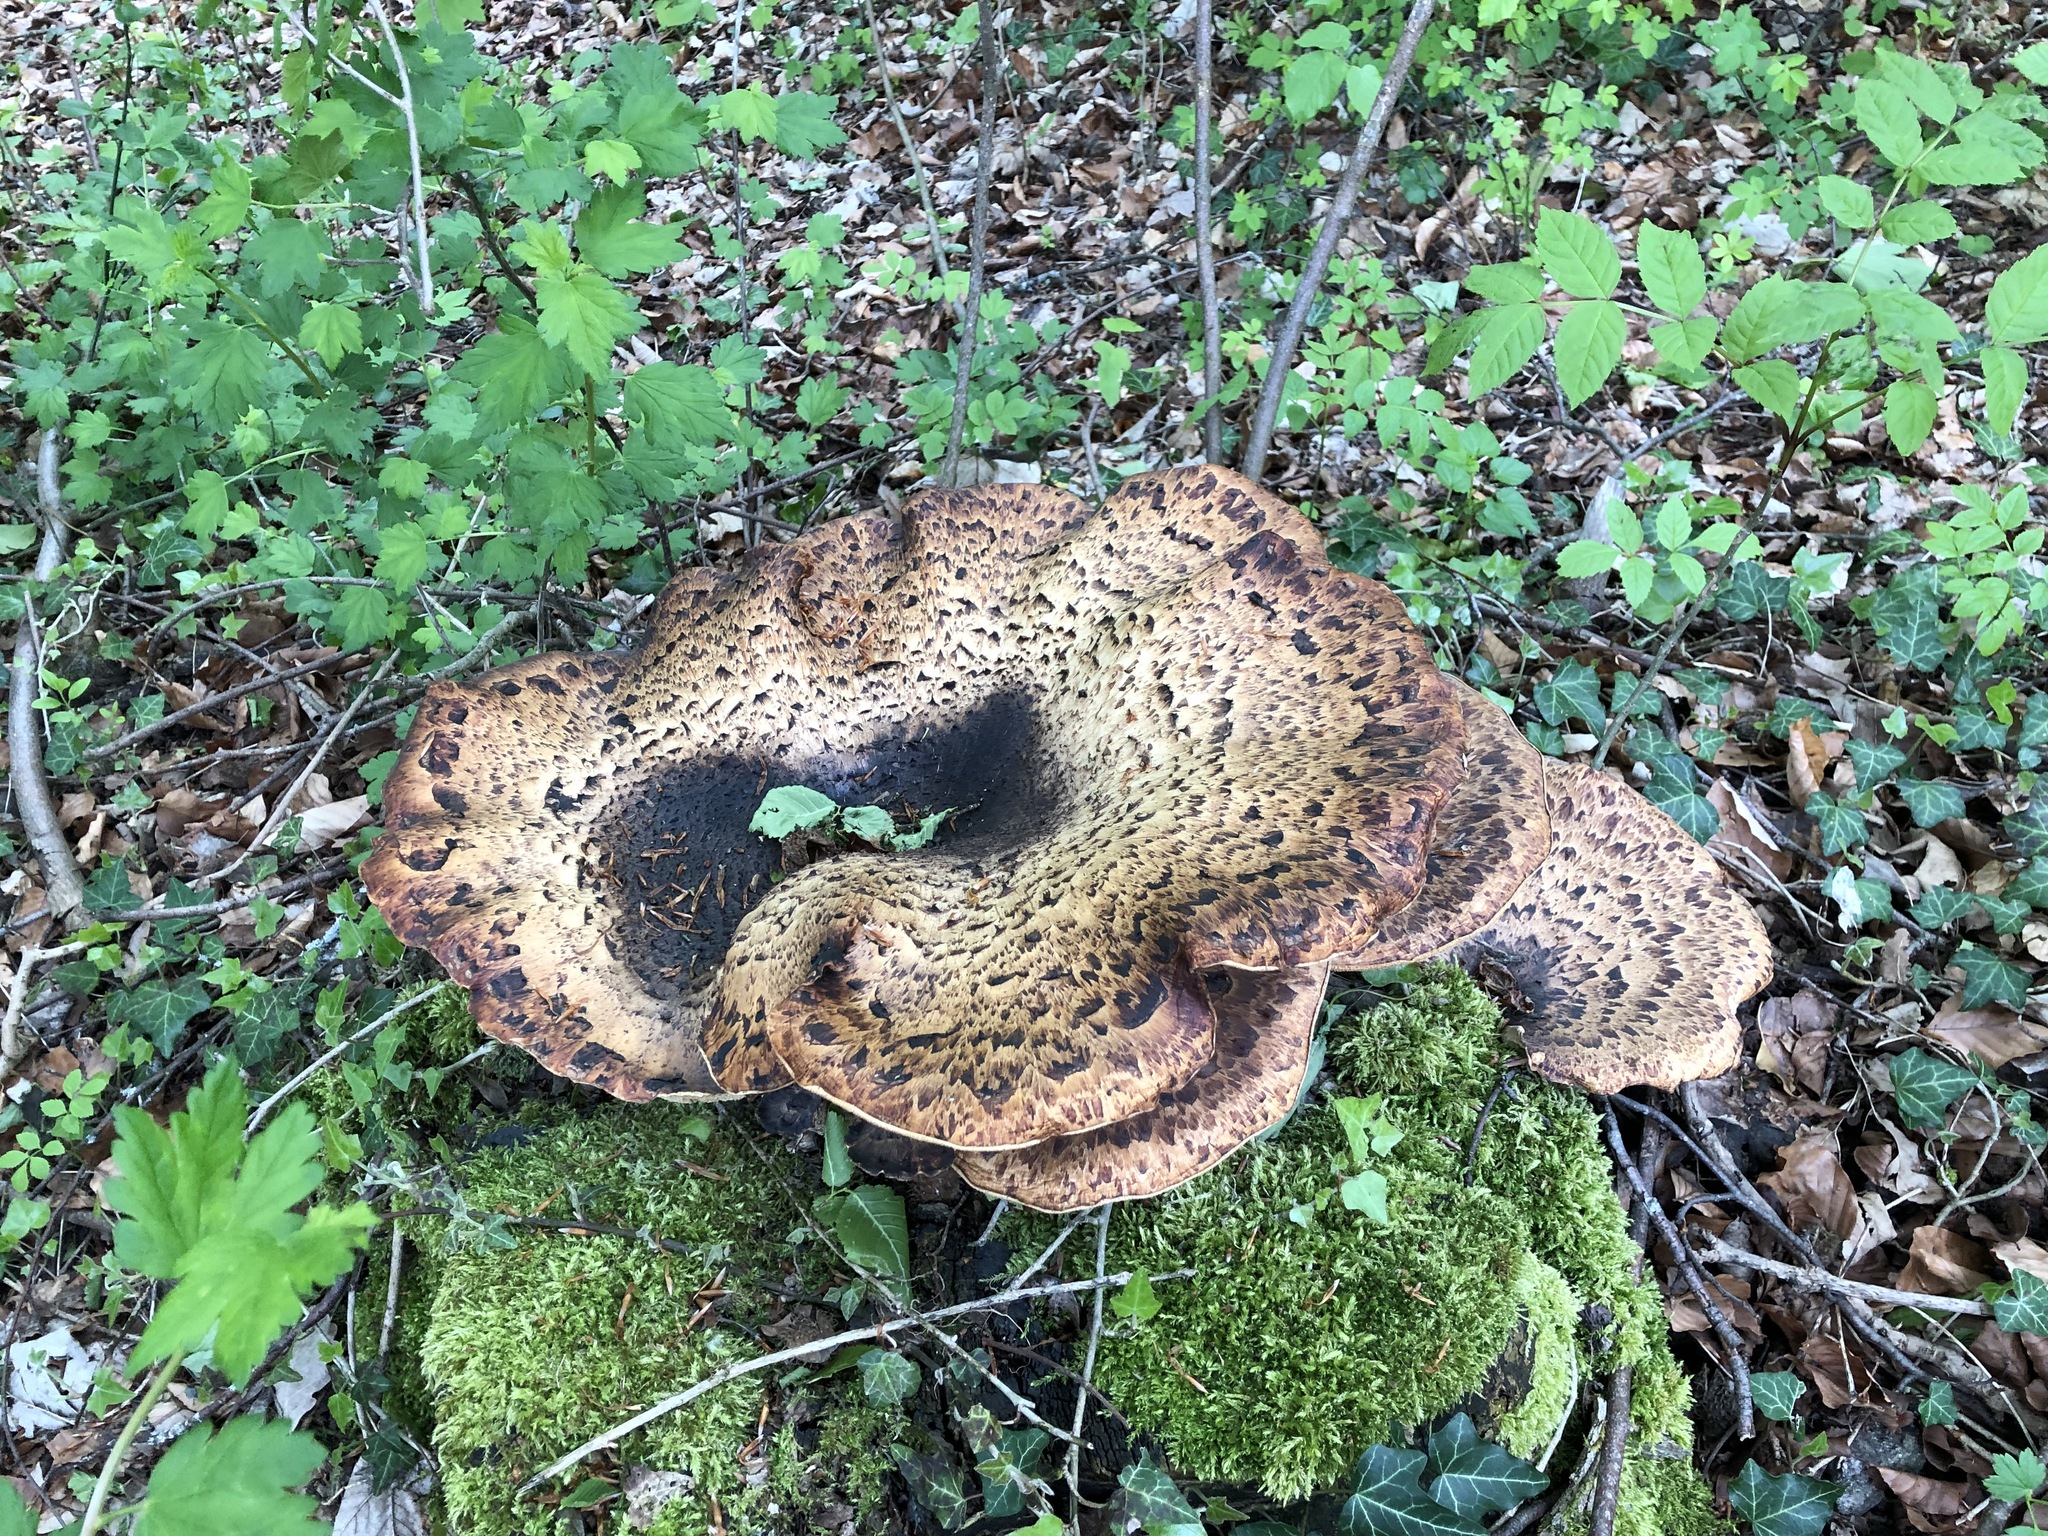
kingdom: Fungi
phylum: Basidiomycota
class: Agaricomycetes
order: Polyporales
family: Polyporaceae
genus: Cerioporus
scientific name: Cerioporus squamosus
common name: Dryad's saddle
